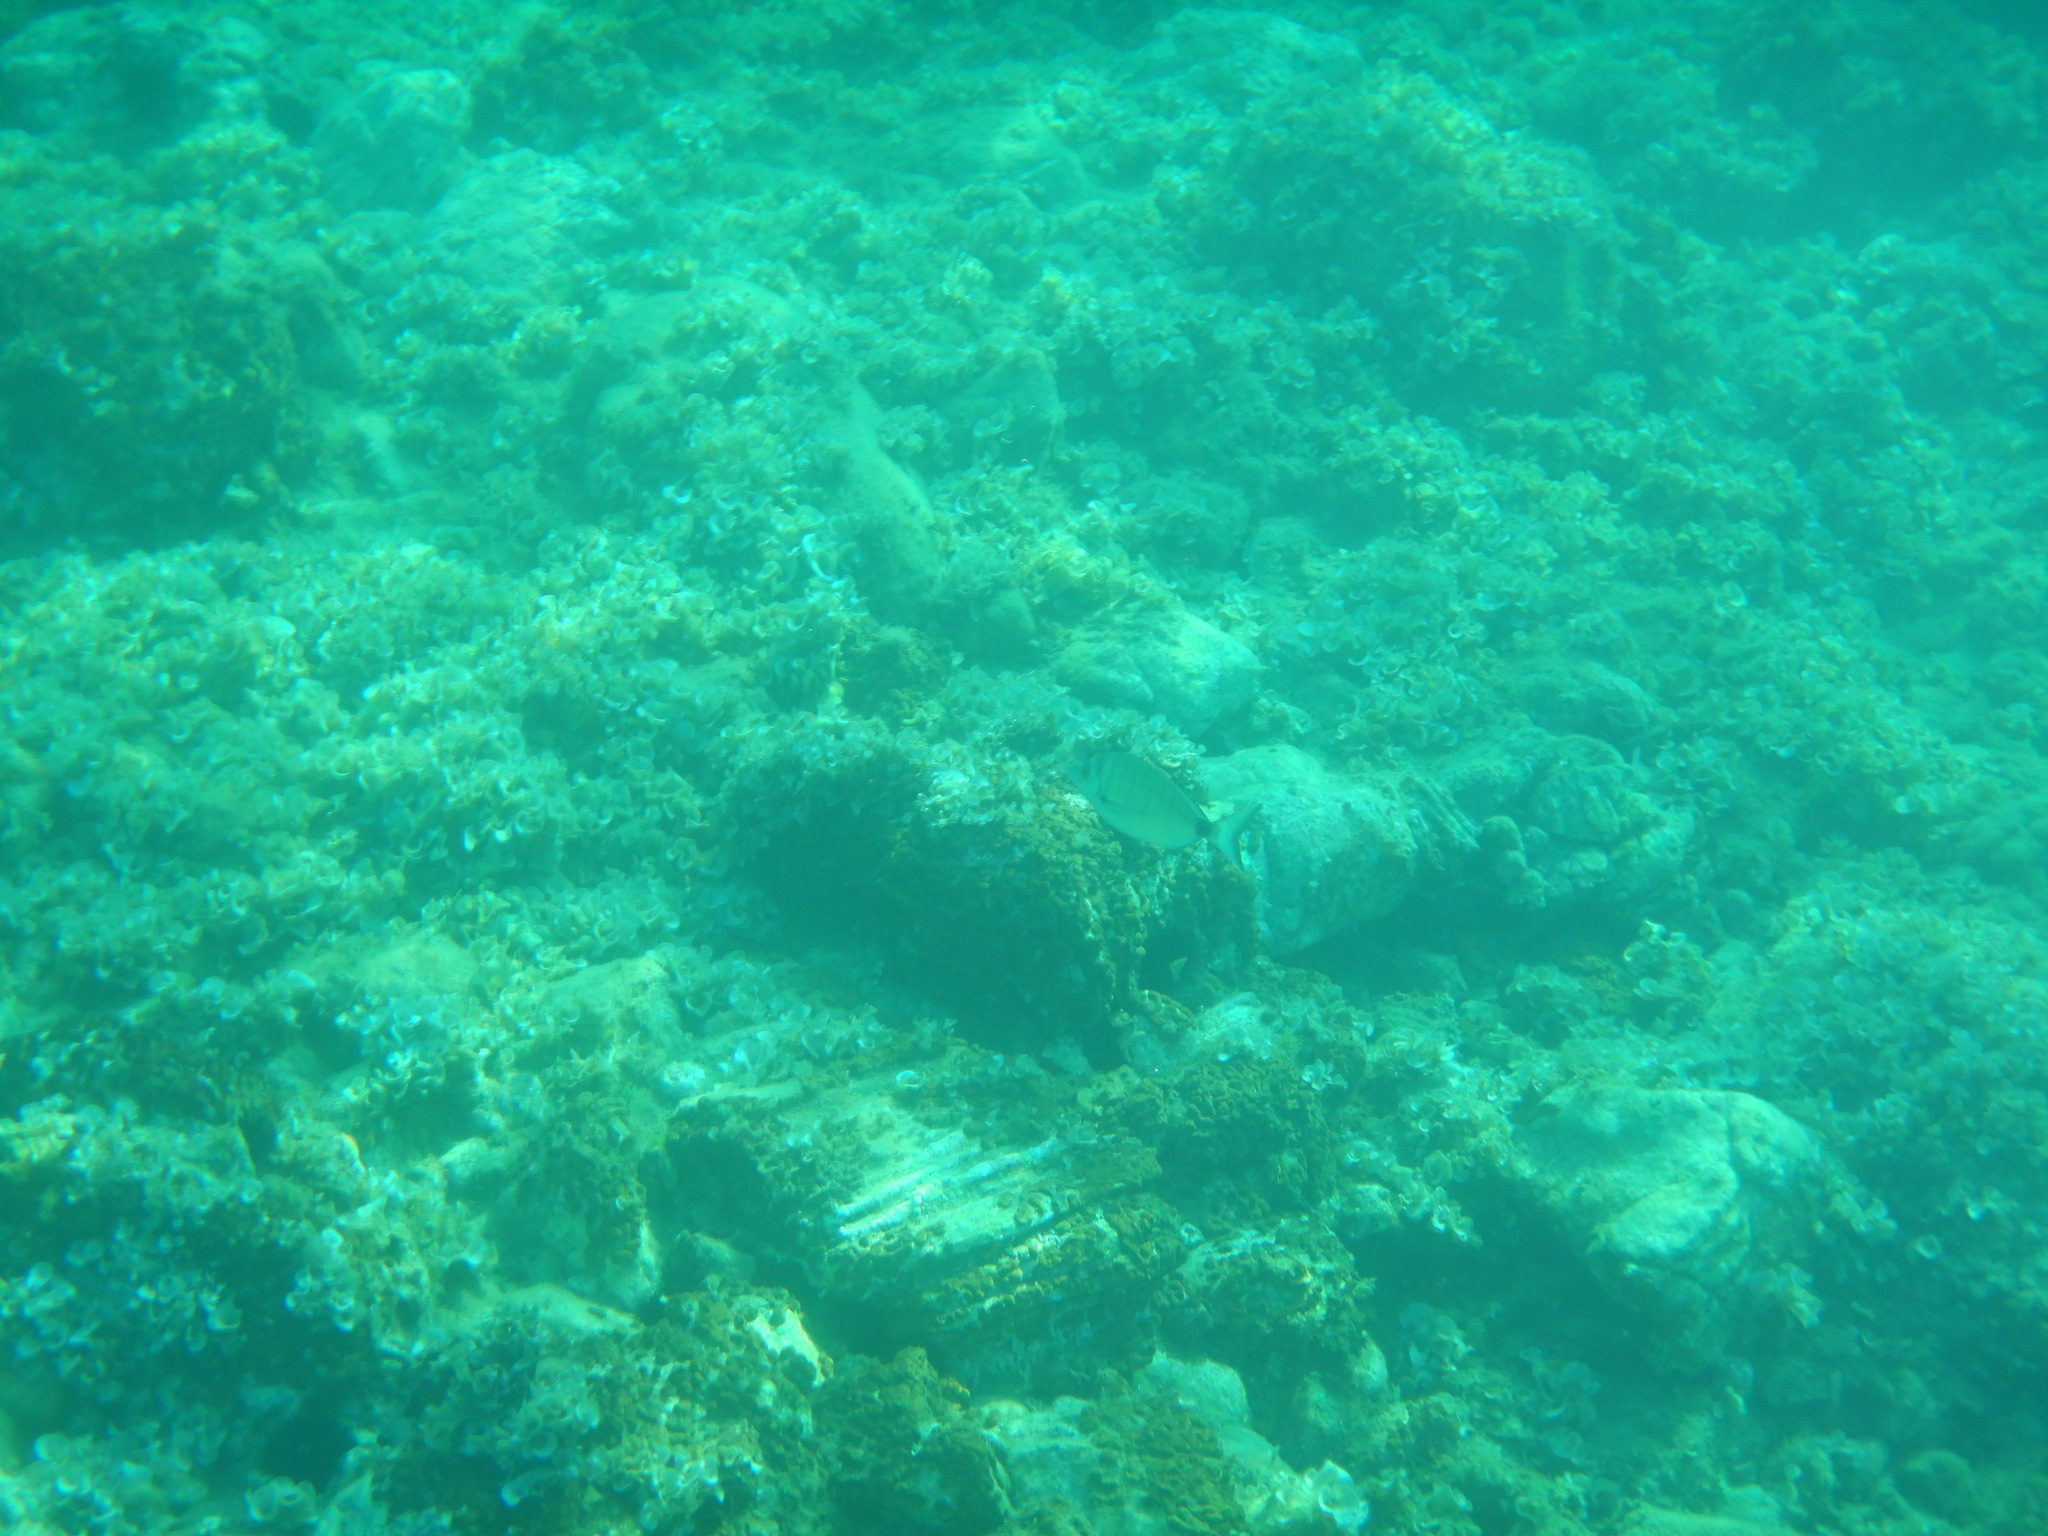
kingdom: Animalia
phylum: Chordata
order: Perciformes
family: Sparidae
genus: Diplodus
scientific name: Diplodus puntazzo
